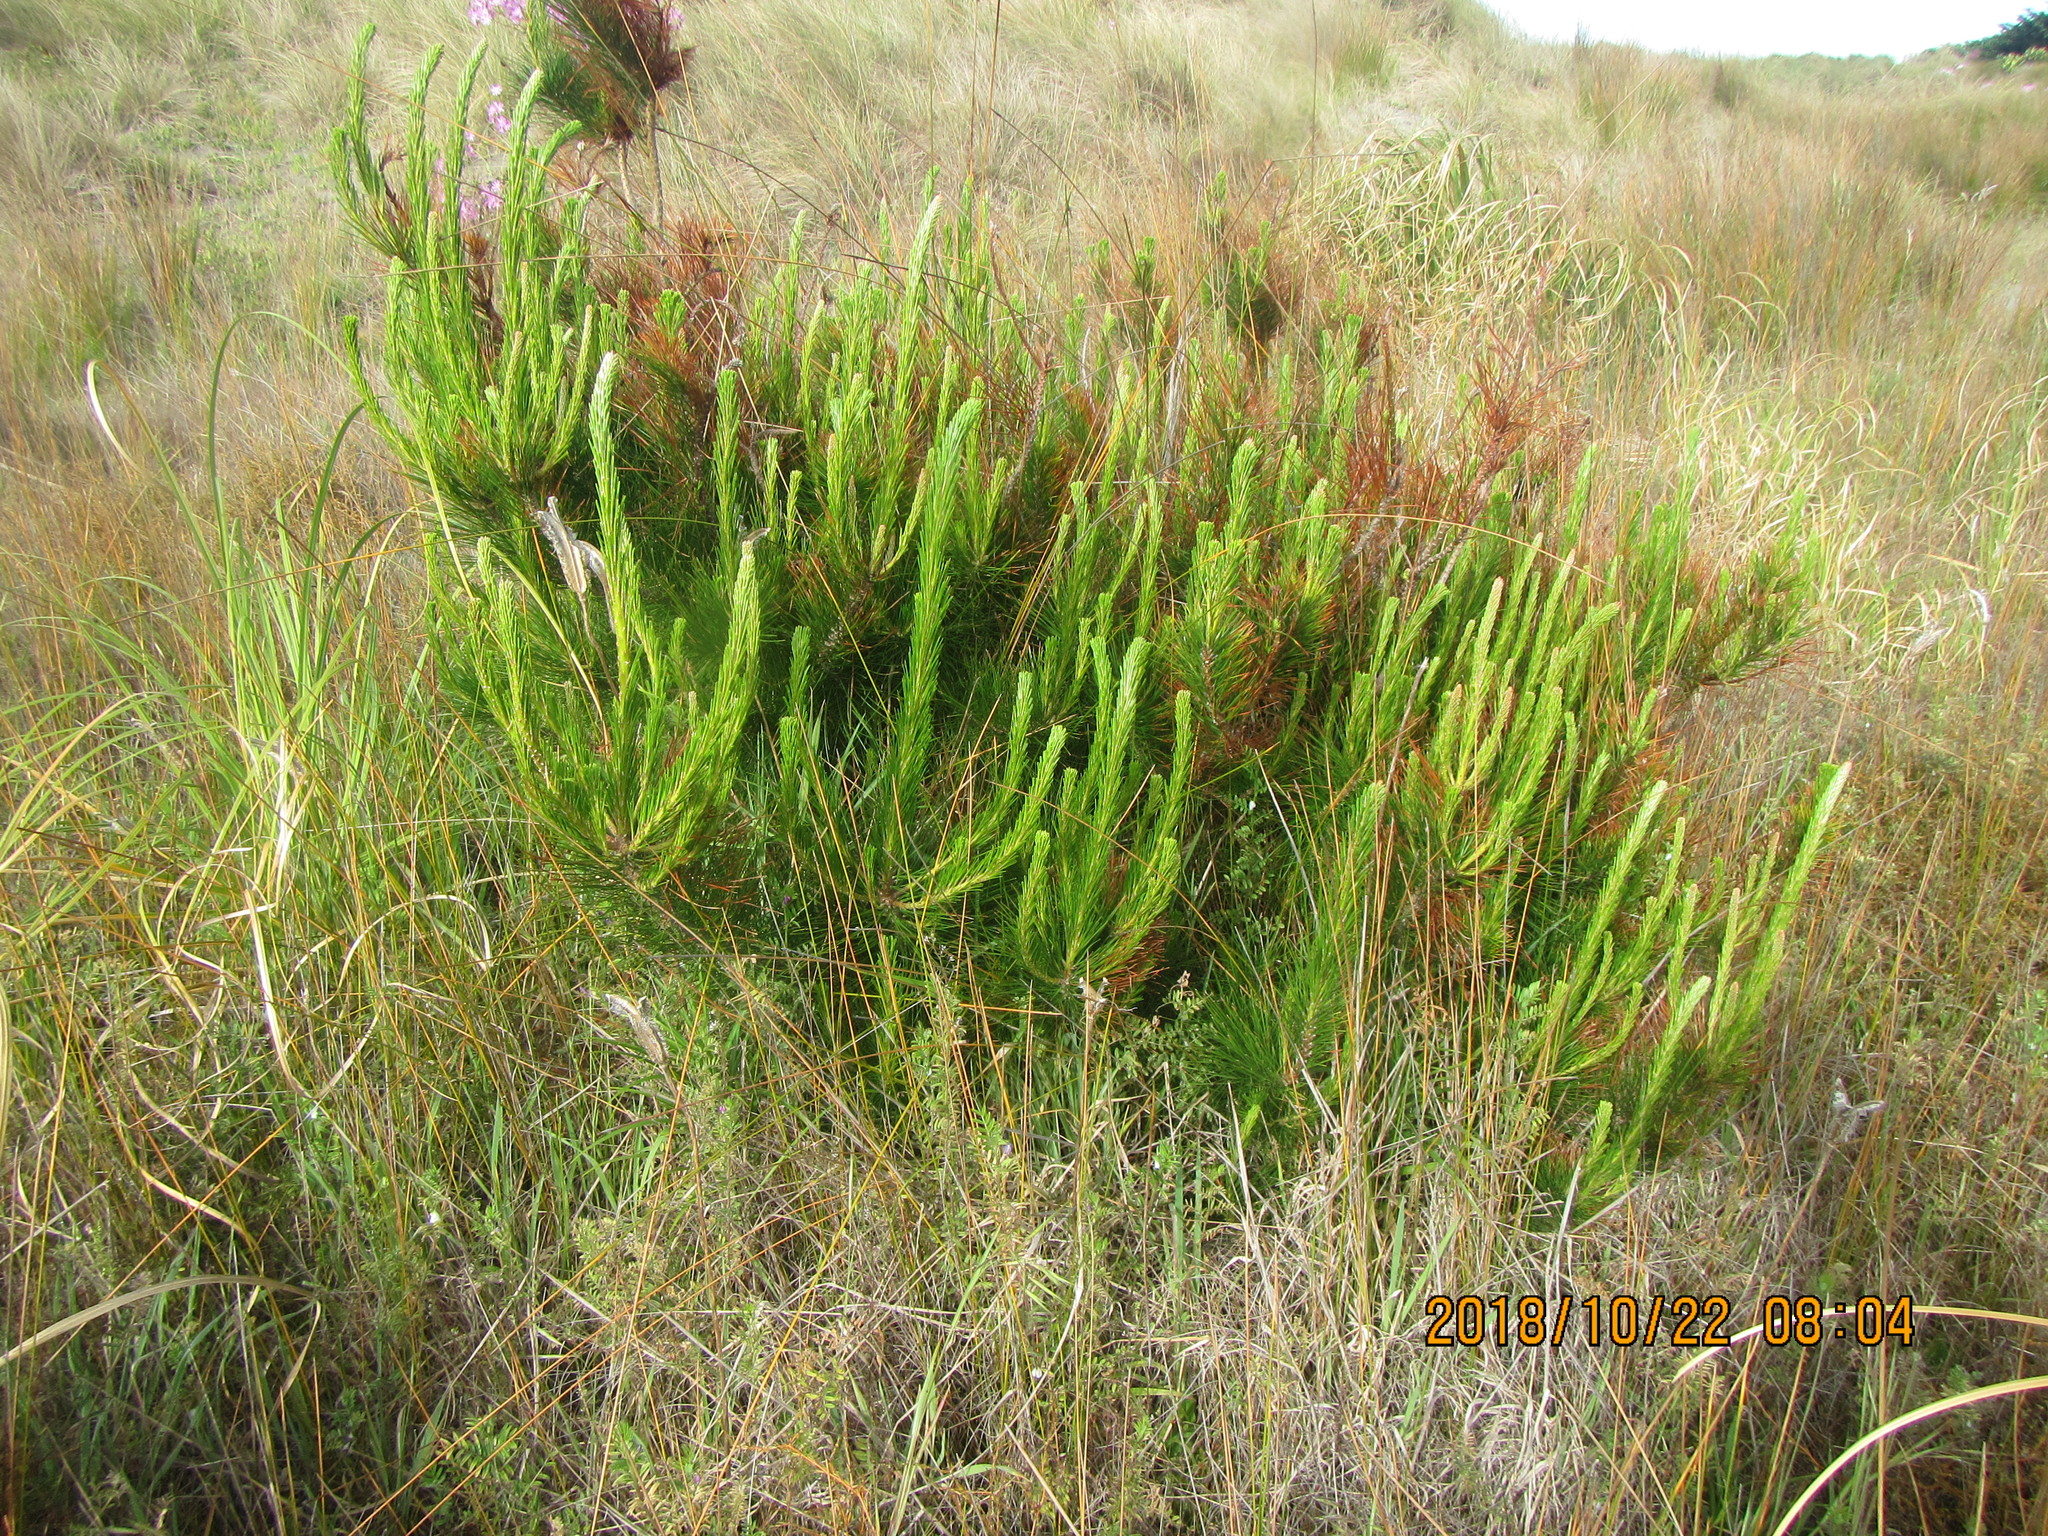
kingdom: Plantae
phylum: Tracheophyta
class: Pinopsida
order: Pinales
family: Pinaceae
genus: Pinus
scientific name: Pinus radiata
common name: Monterey pine
